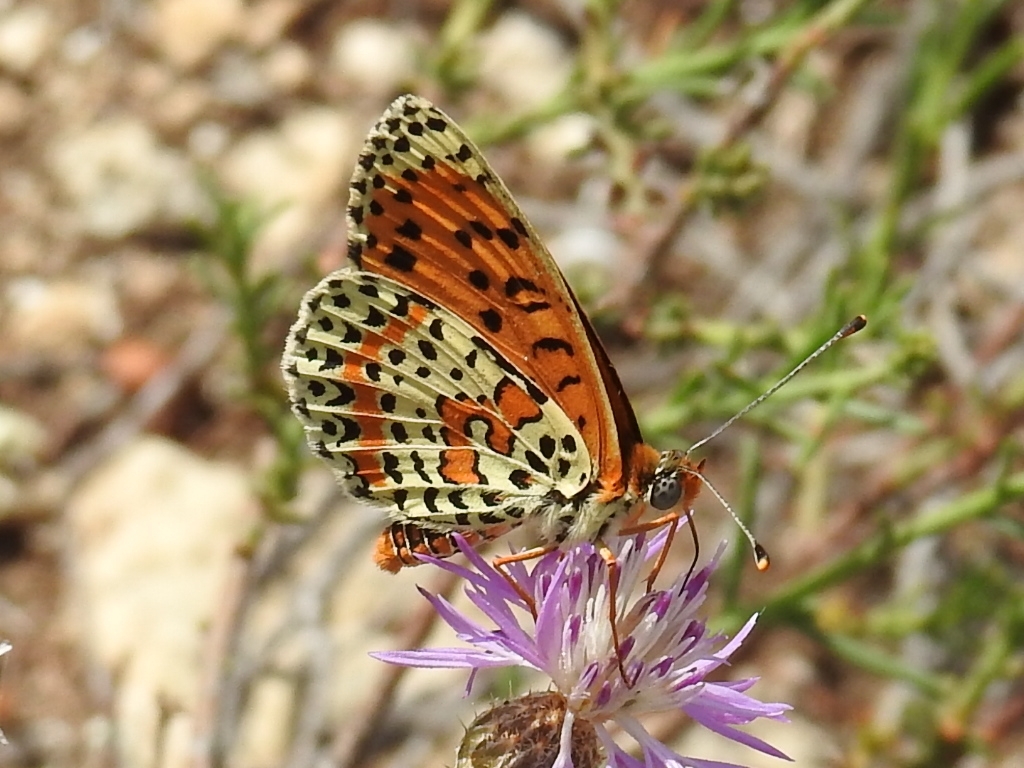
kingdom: Animalia
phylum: Arthropoda
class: Insecta
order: Lepidoptera
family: Nymphalidae
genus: Melitaea
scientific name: Melitaea didyma
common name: Spotted fritillary
